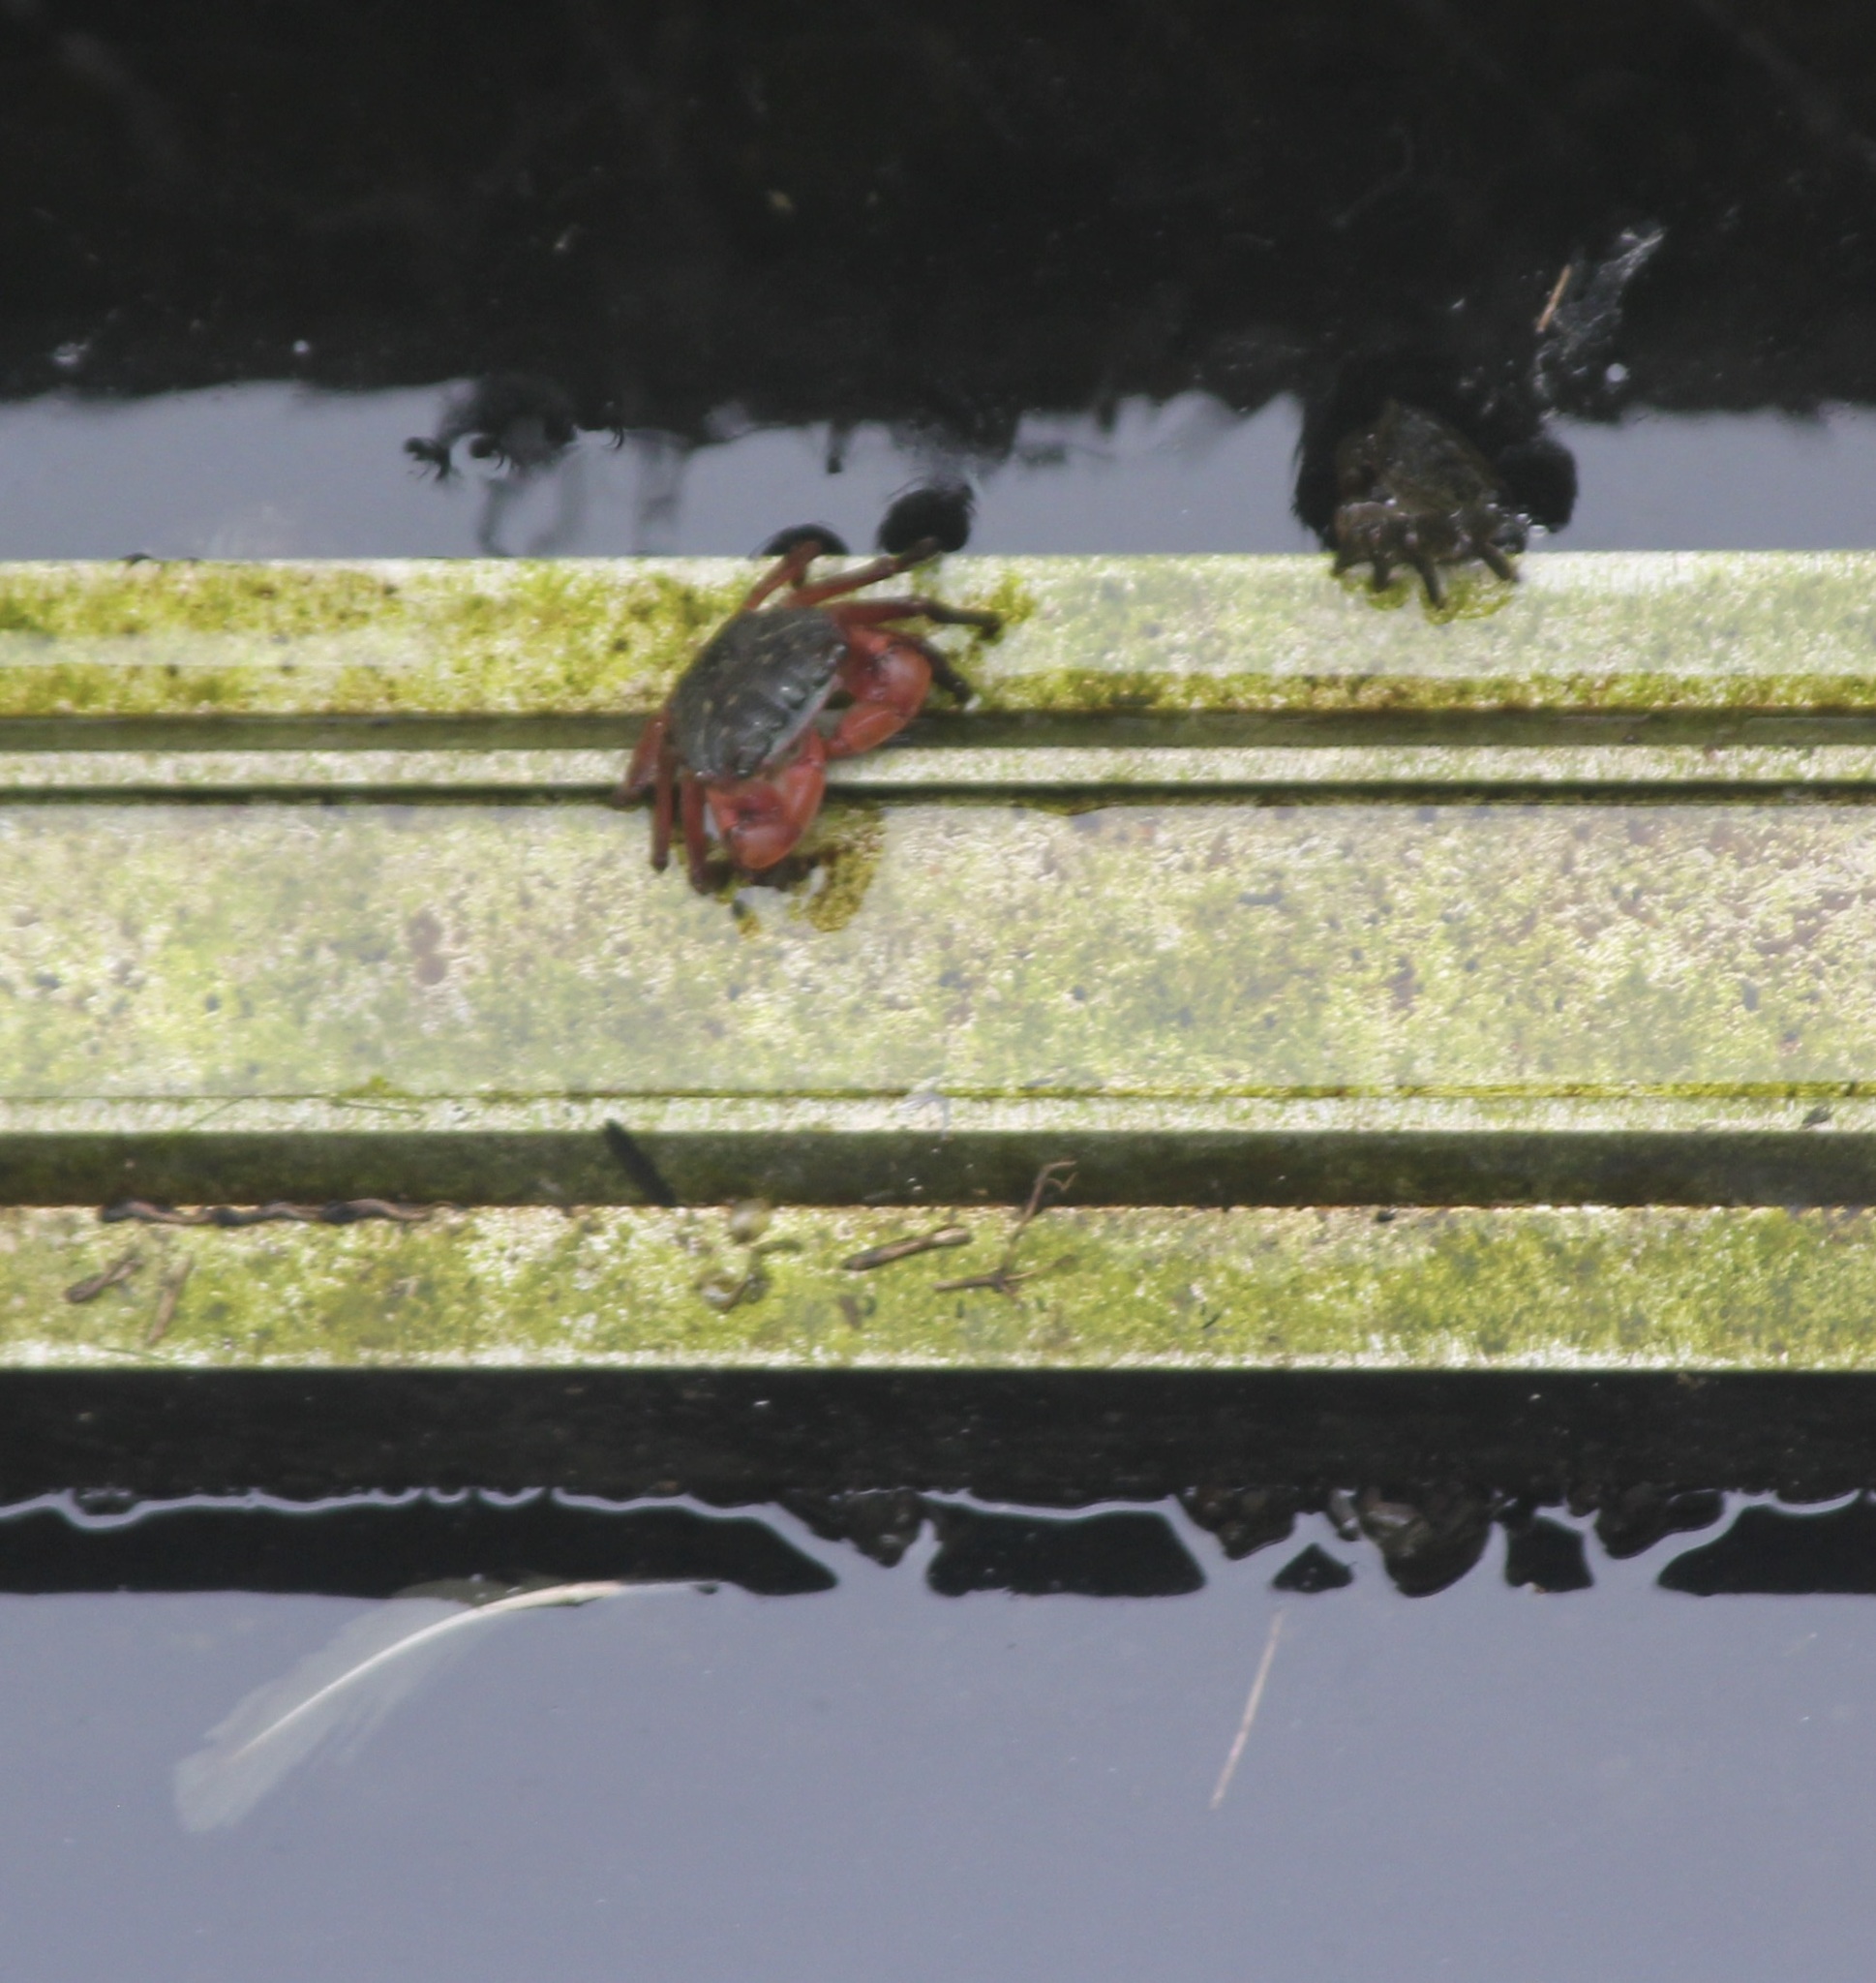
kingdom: Animalia
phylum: Arthropoda
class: Malacostraca
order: Decapoda
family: Grapsidae
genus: Pachygrapsus
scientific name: Pachygrapsus crassipes
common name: Striped shore crab
